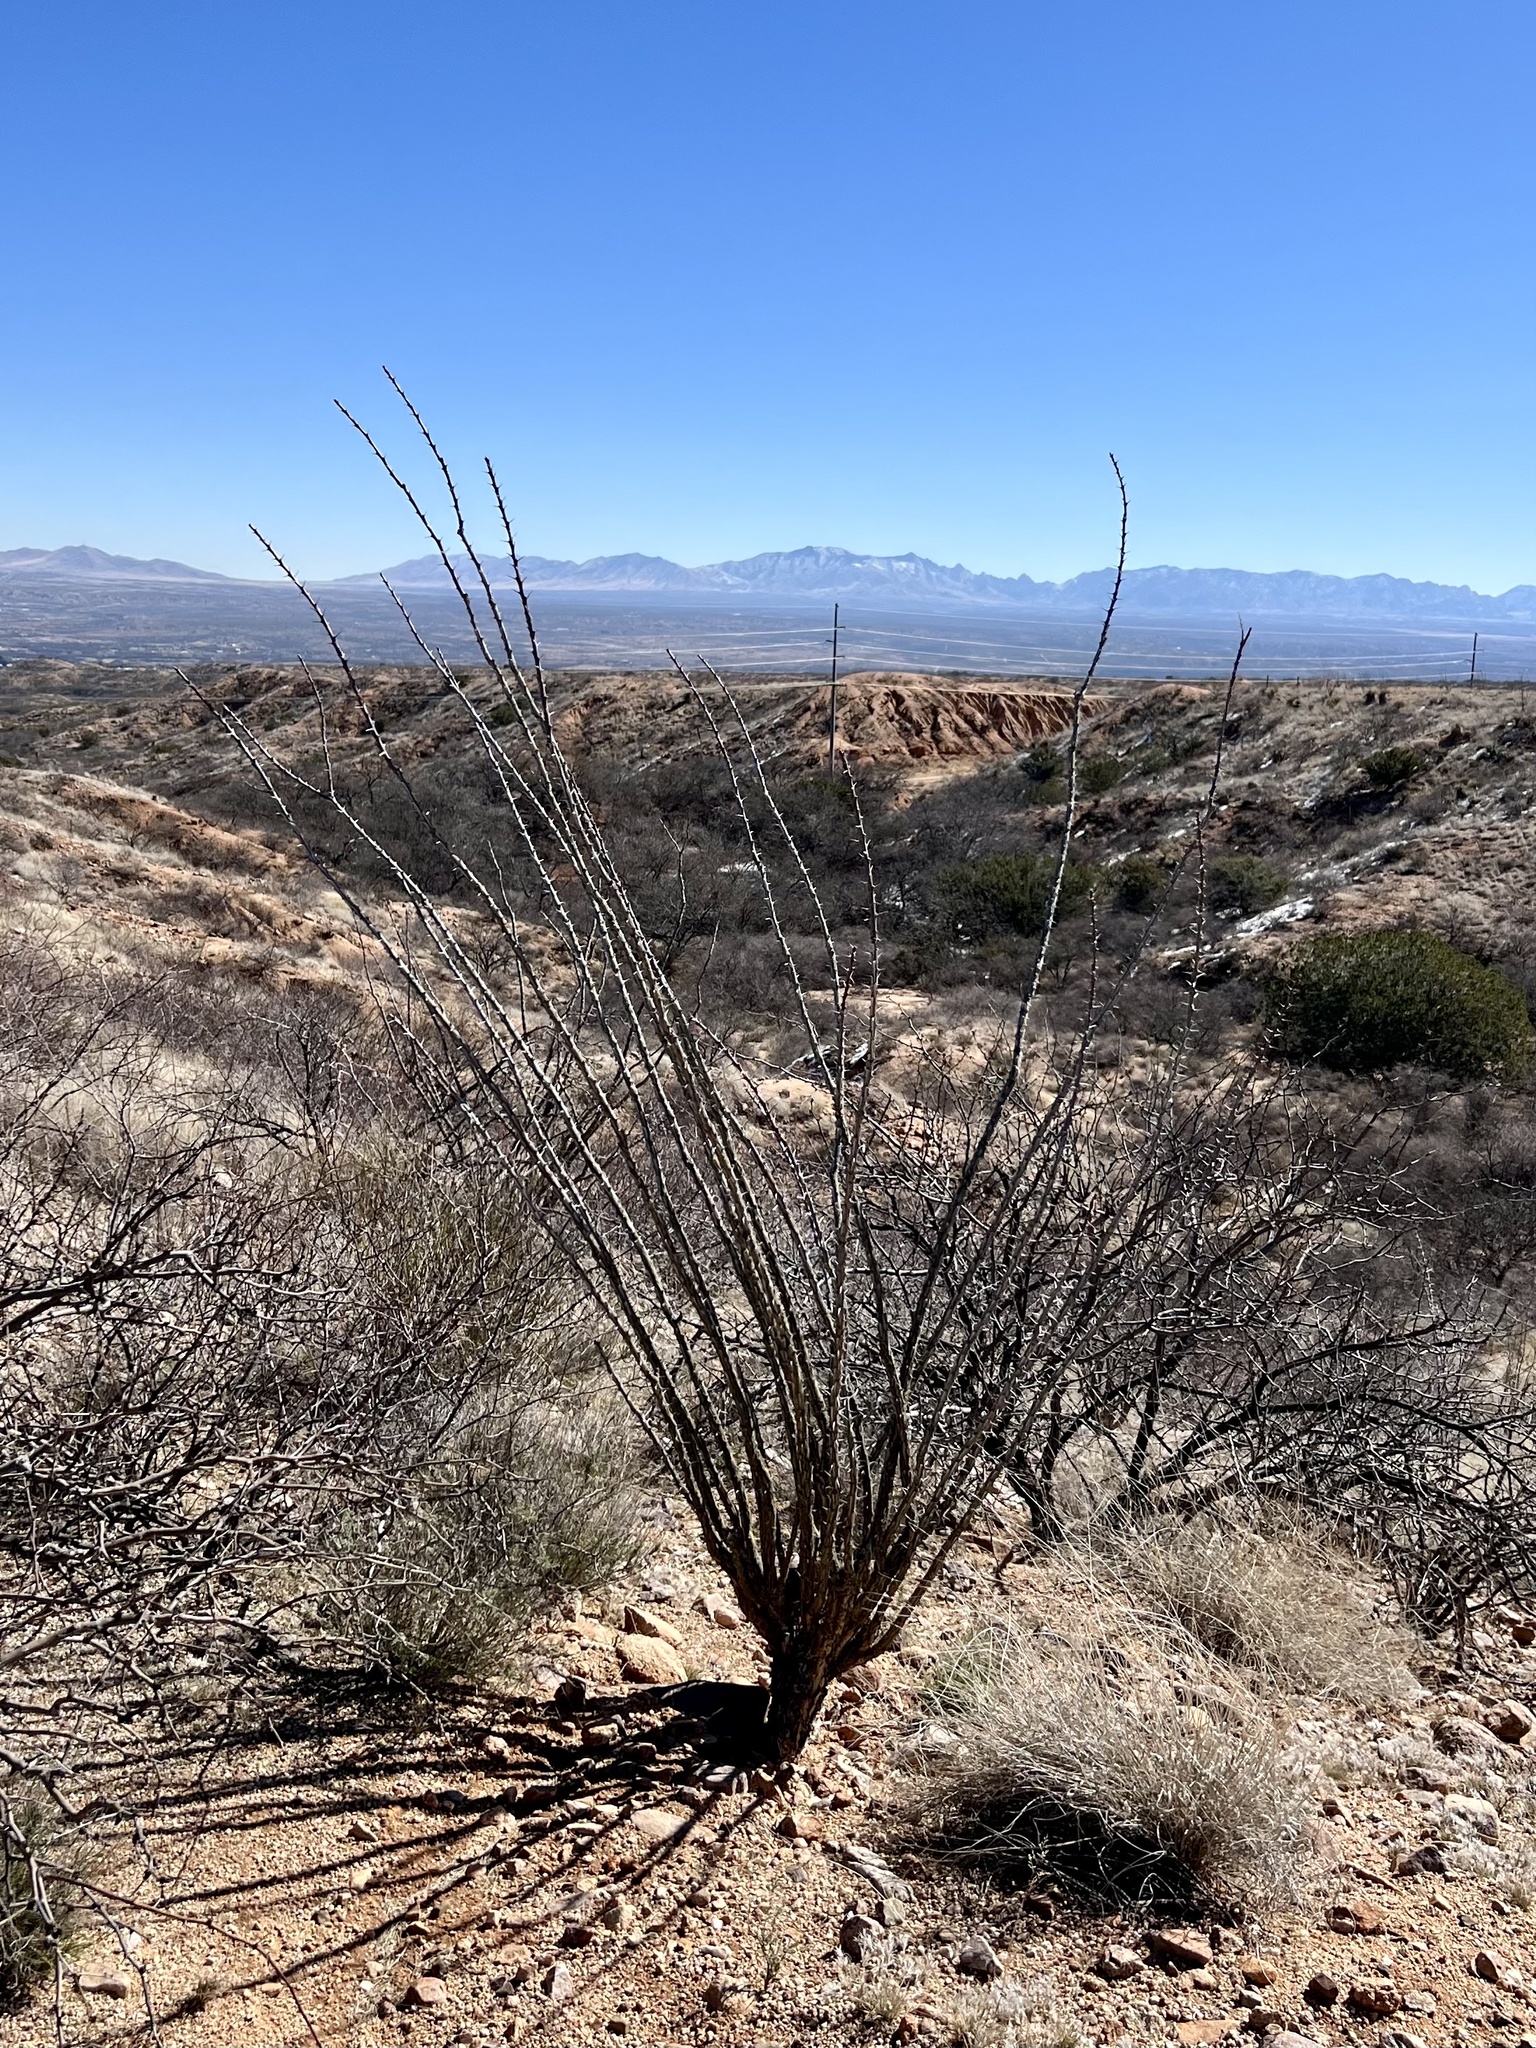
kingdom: Plantae
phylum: Tracheophyta
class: Magnoliopsida
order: Ericales
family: Fouquieriaceae
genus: Fouquieria
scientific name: Fouquieria splendens
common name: Vine-cactus
